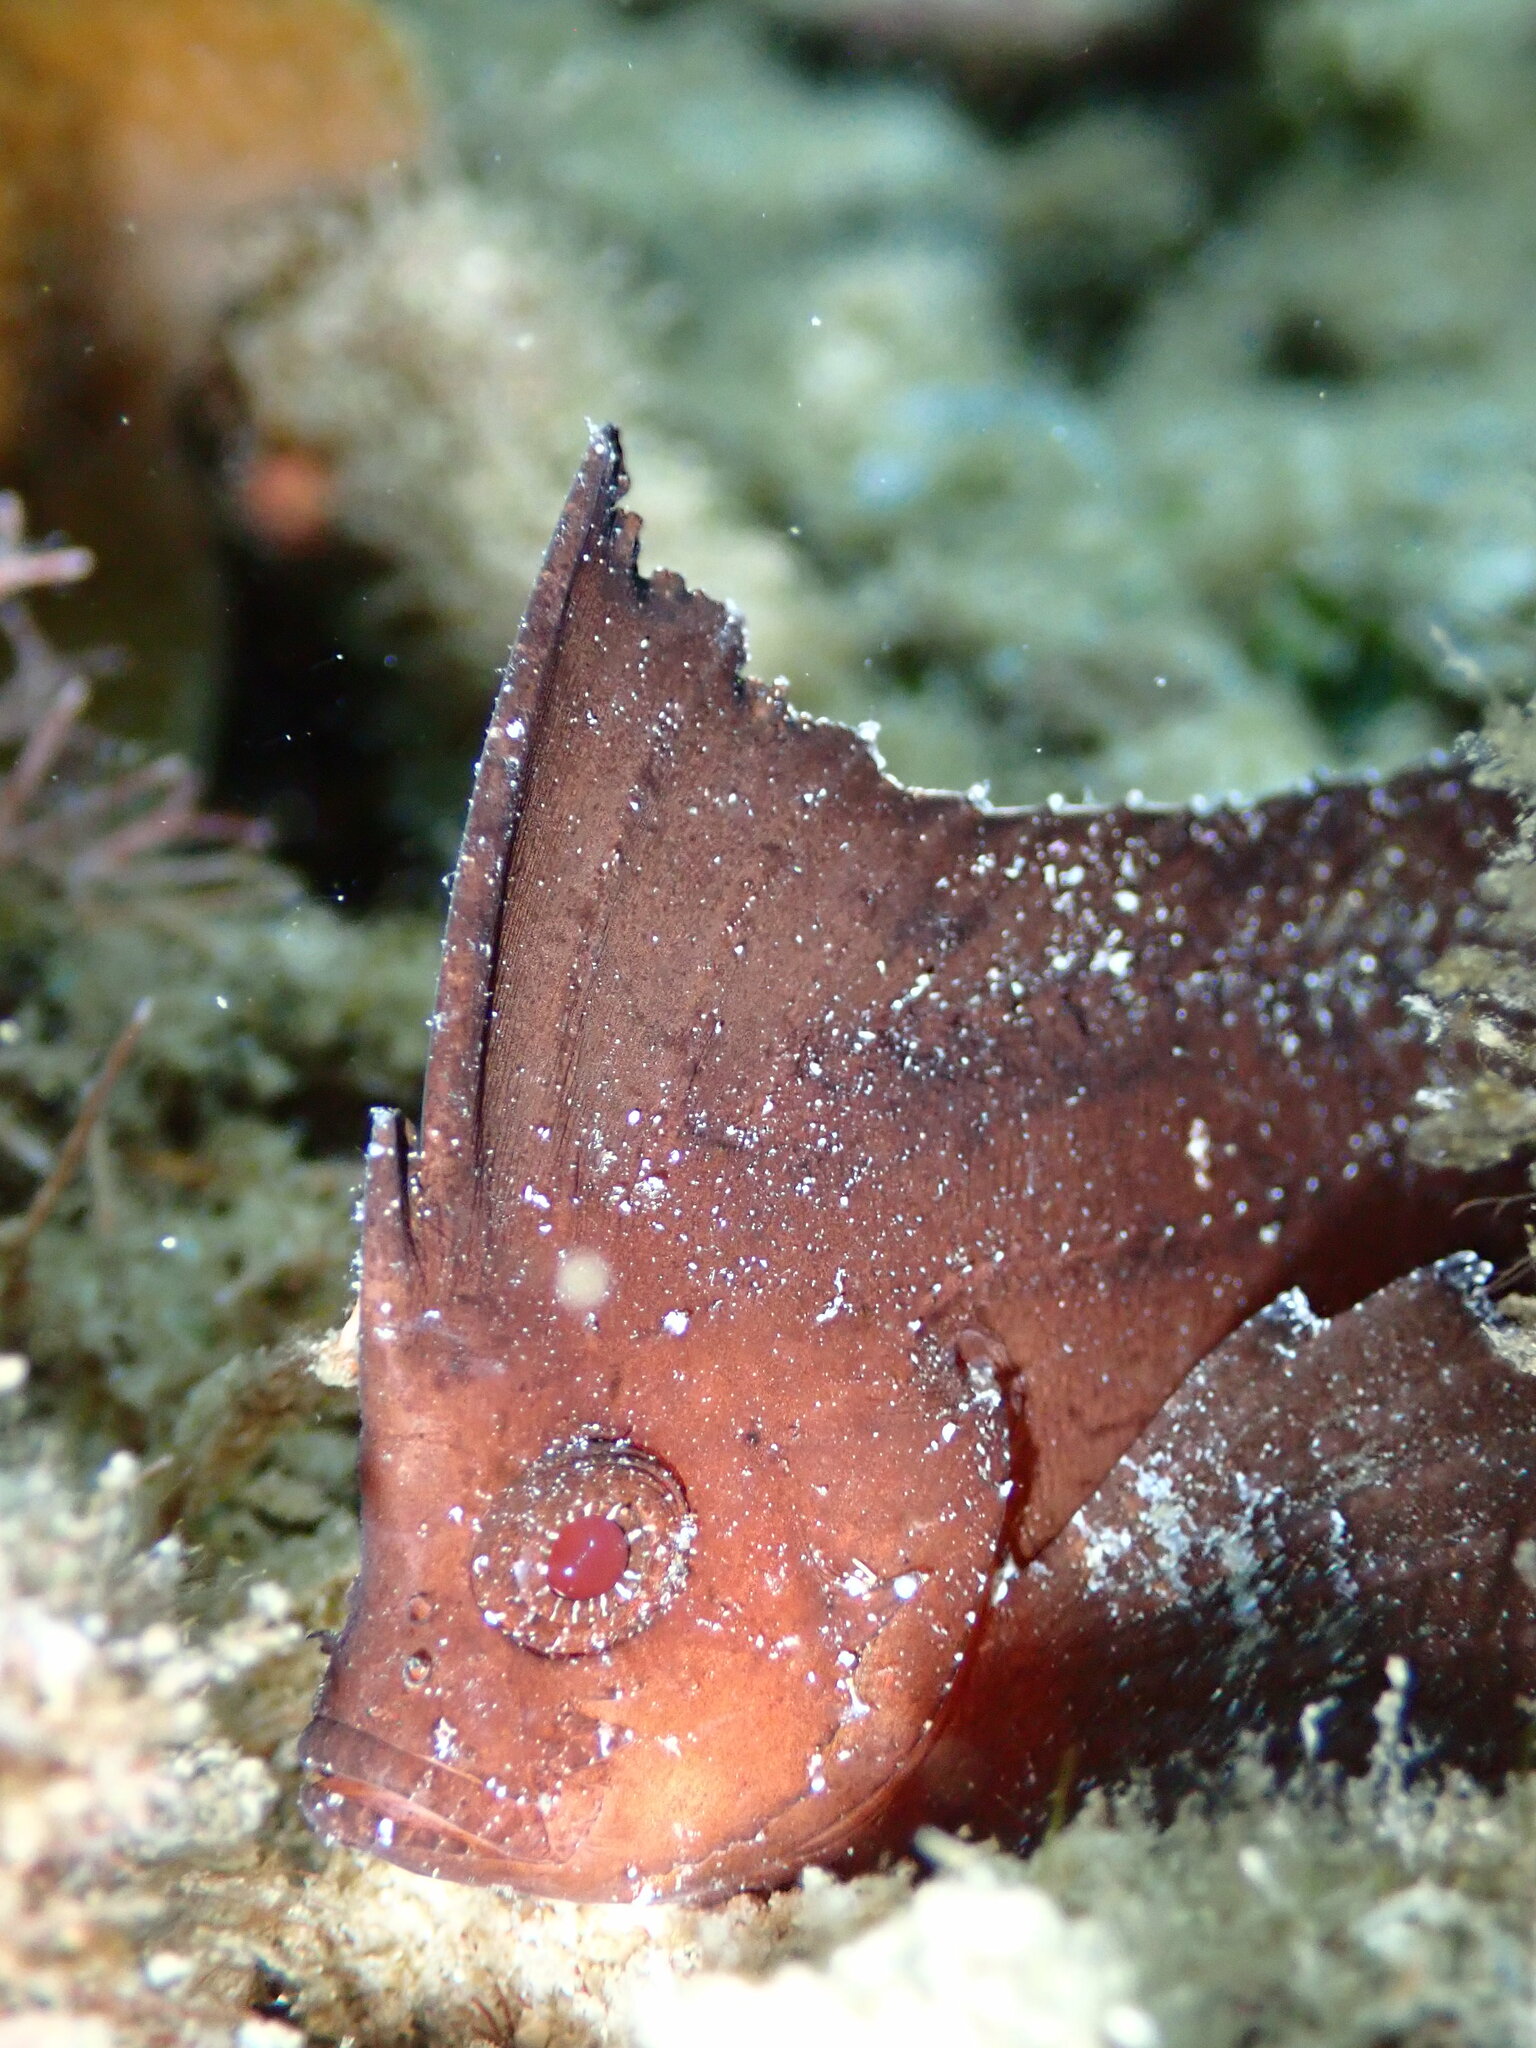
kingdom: Animalia
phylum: Chordata
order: Scorpaeniformes
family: Tetrarogidae
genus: Ablabys
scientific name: Ablabys macracanthus
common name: Spiny leaf-fish
